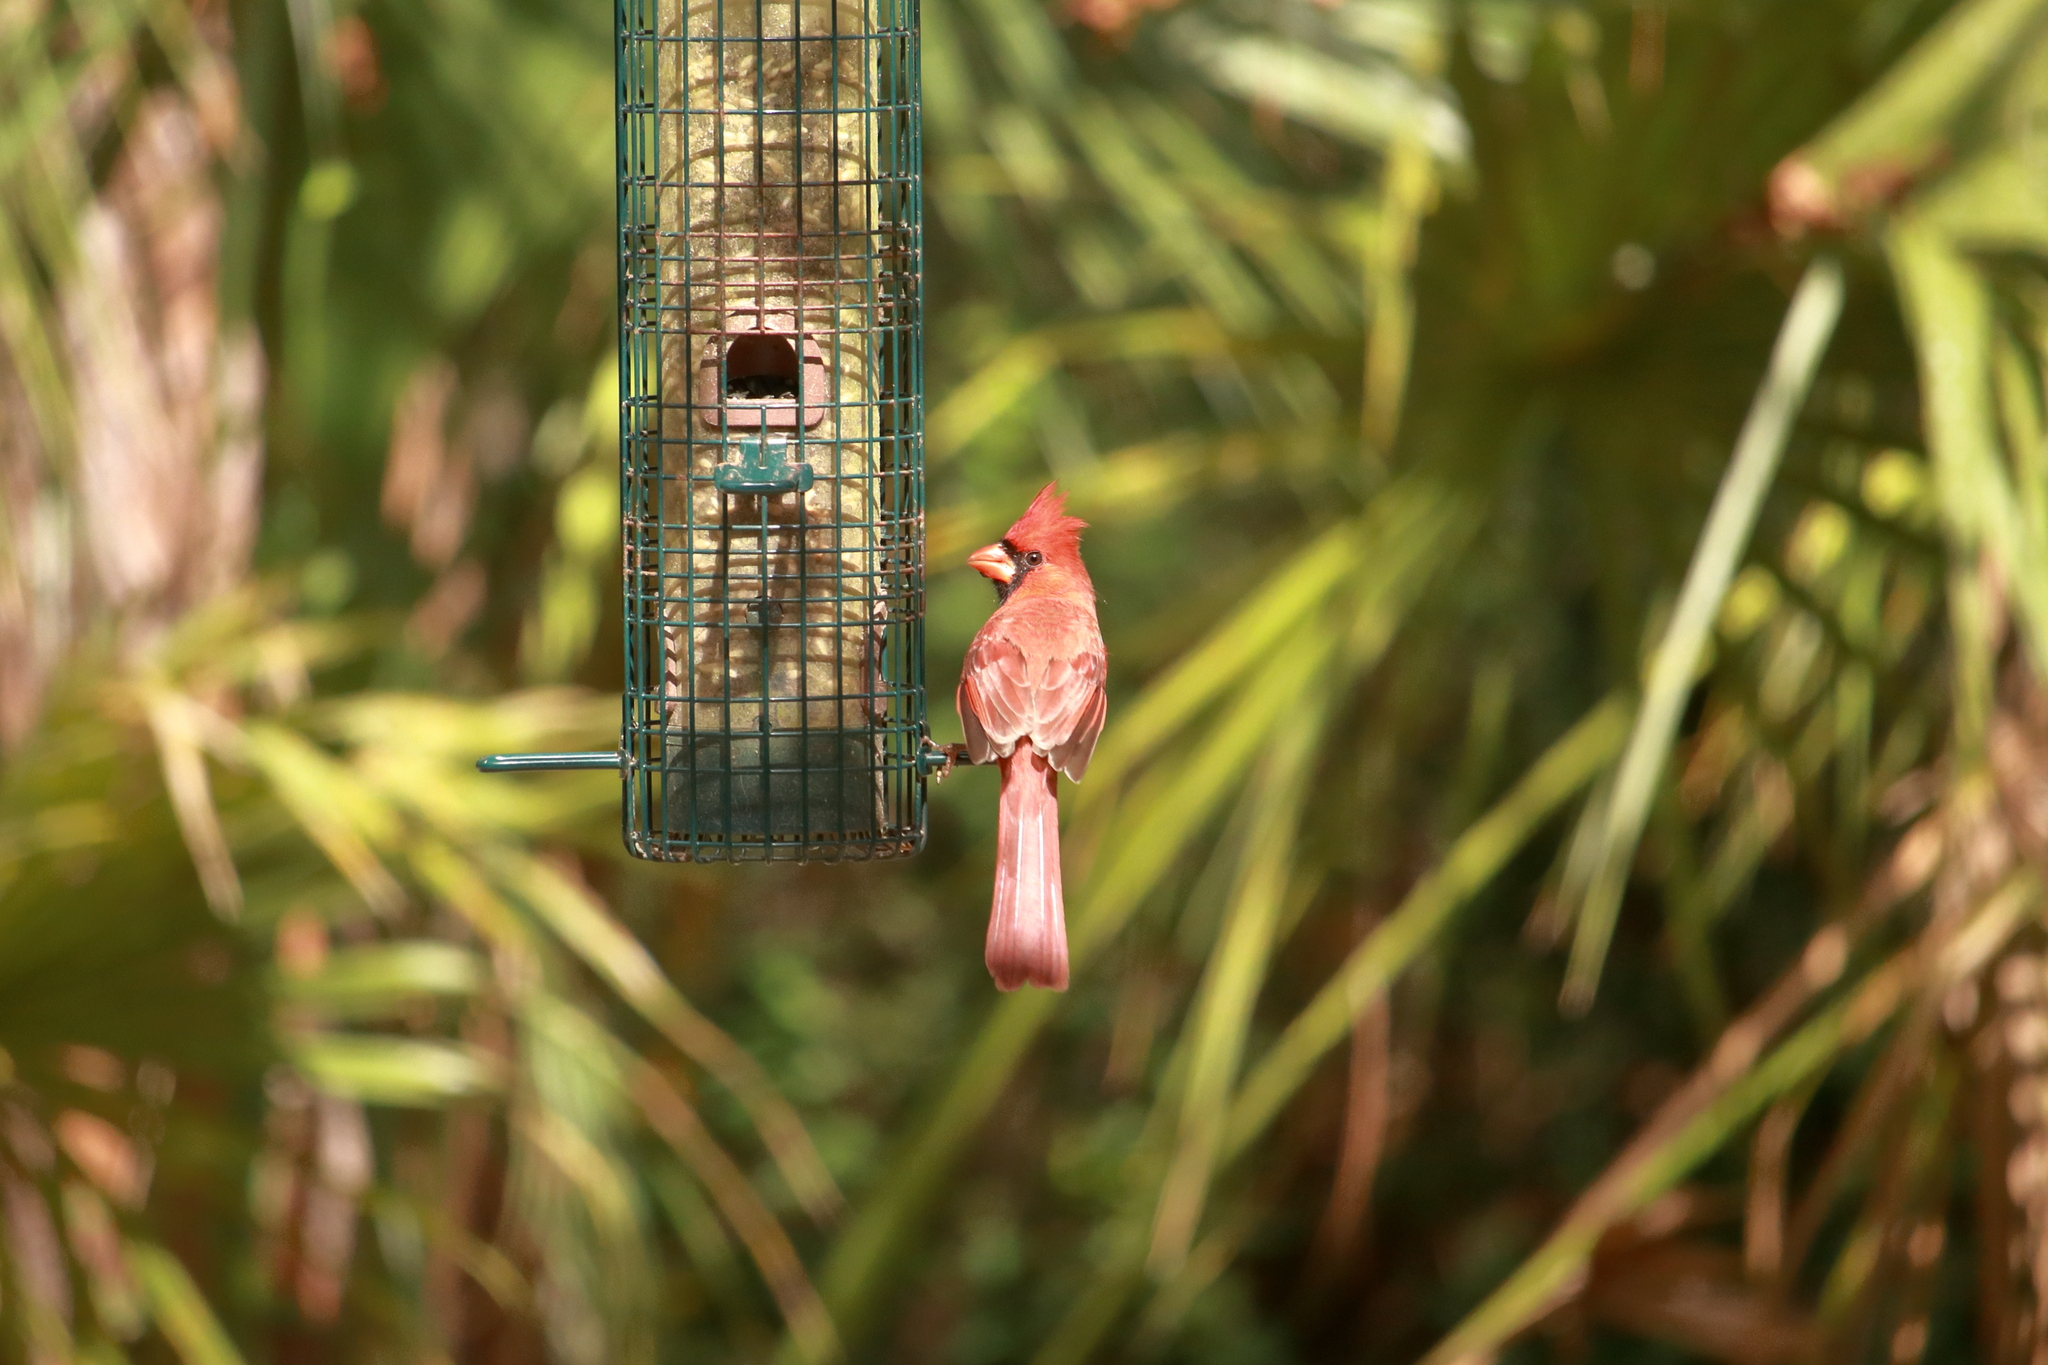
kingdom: Animalia
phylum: Chordata
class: Aves
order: Passeriformes
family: Cardinalidae
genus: Cardinalis
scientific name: Cardinalis cardinalis
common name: Northern cardinal
